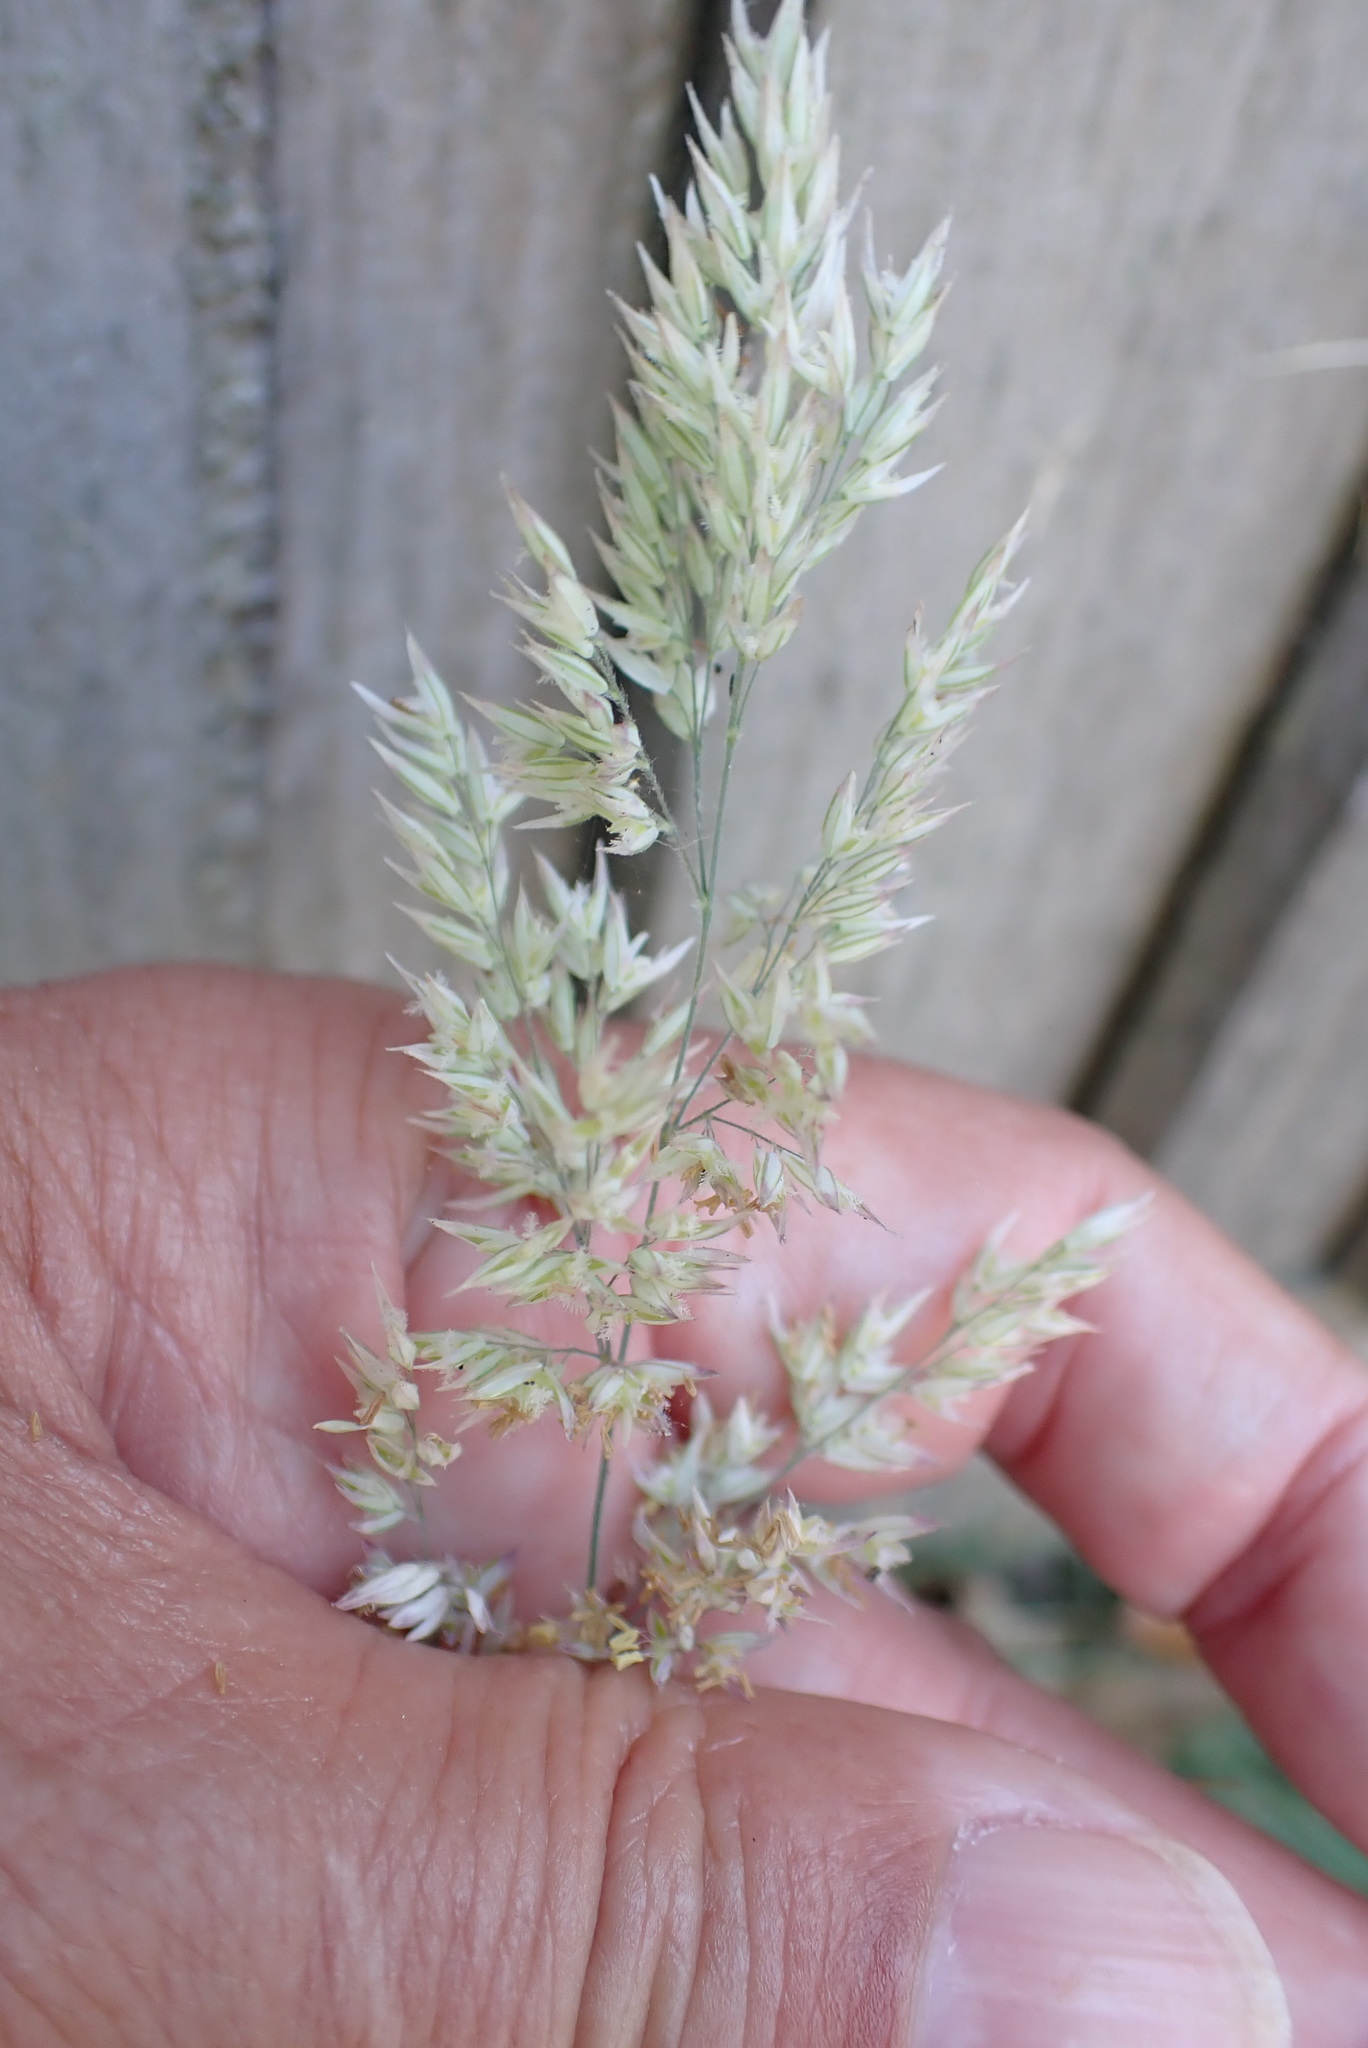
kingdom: Plantae
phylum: Tracheophyta
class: Liliopsida
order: Poales
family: Poaceae
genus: Holcus
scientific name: Holcus lanatus
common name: Yorkshire-fog
